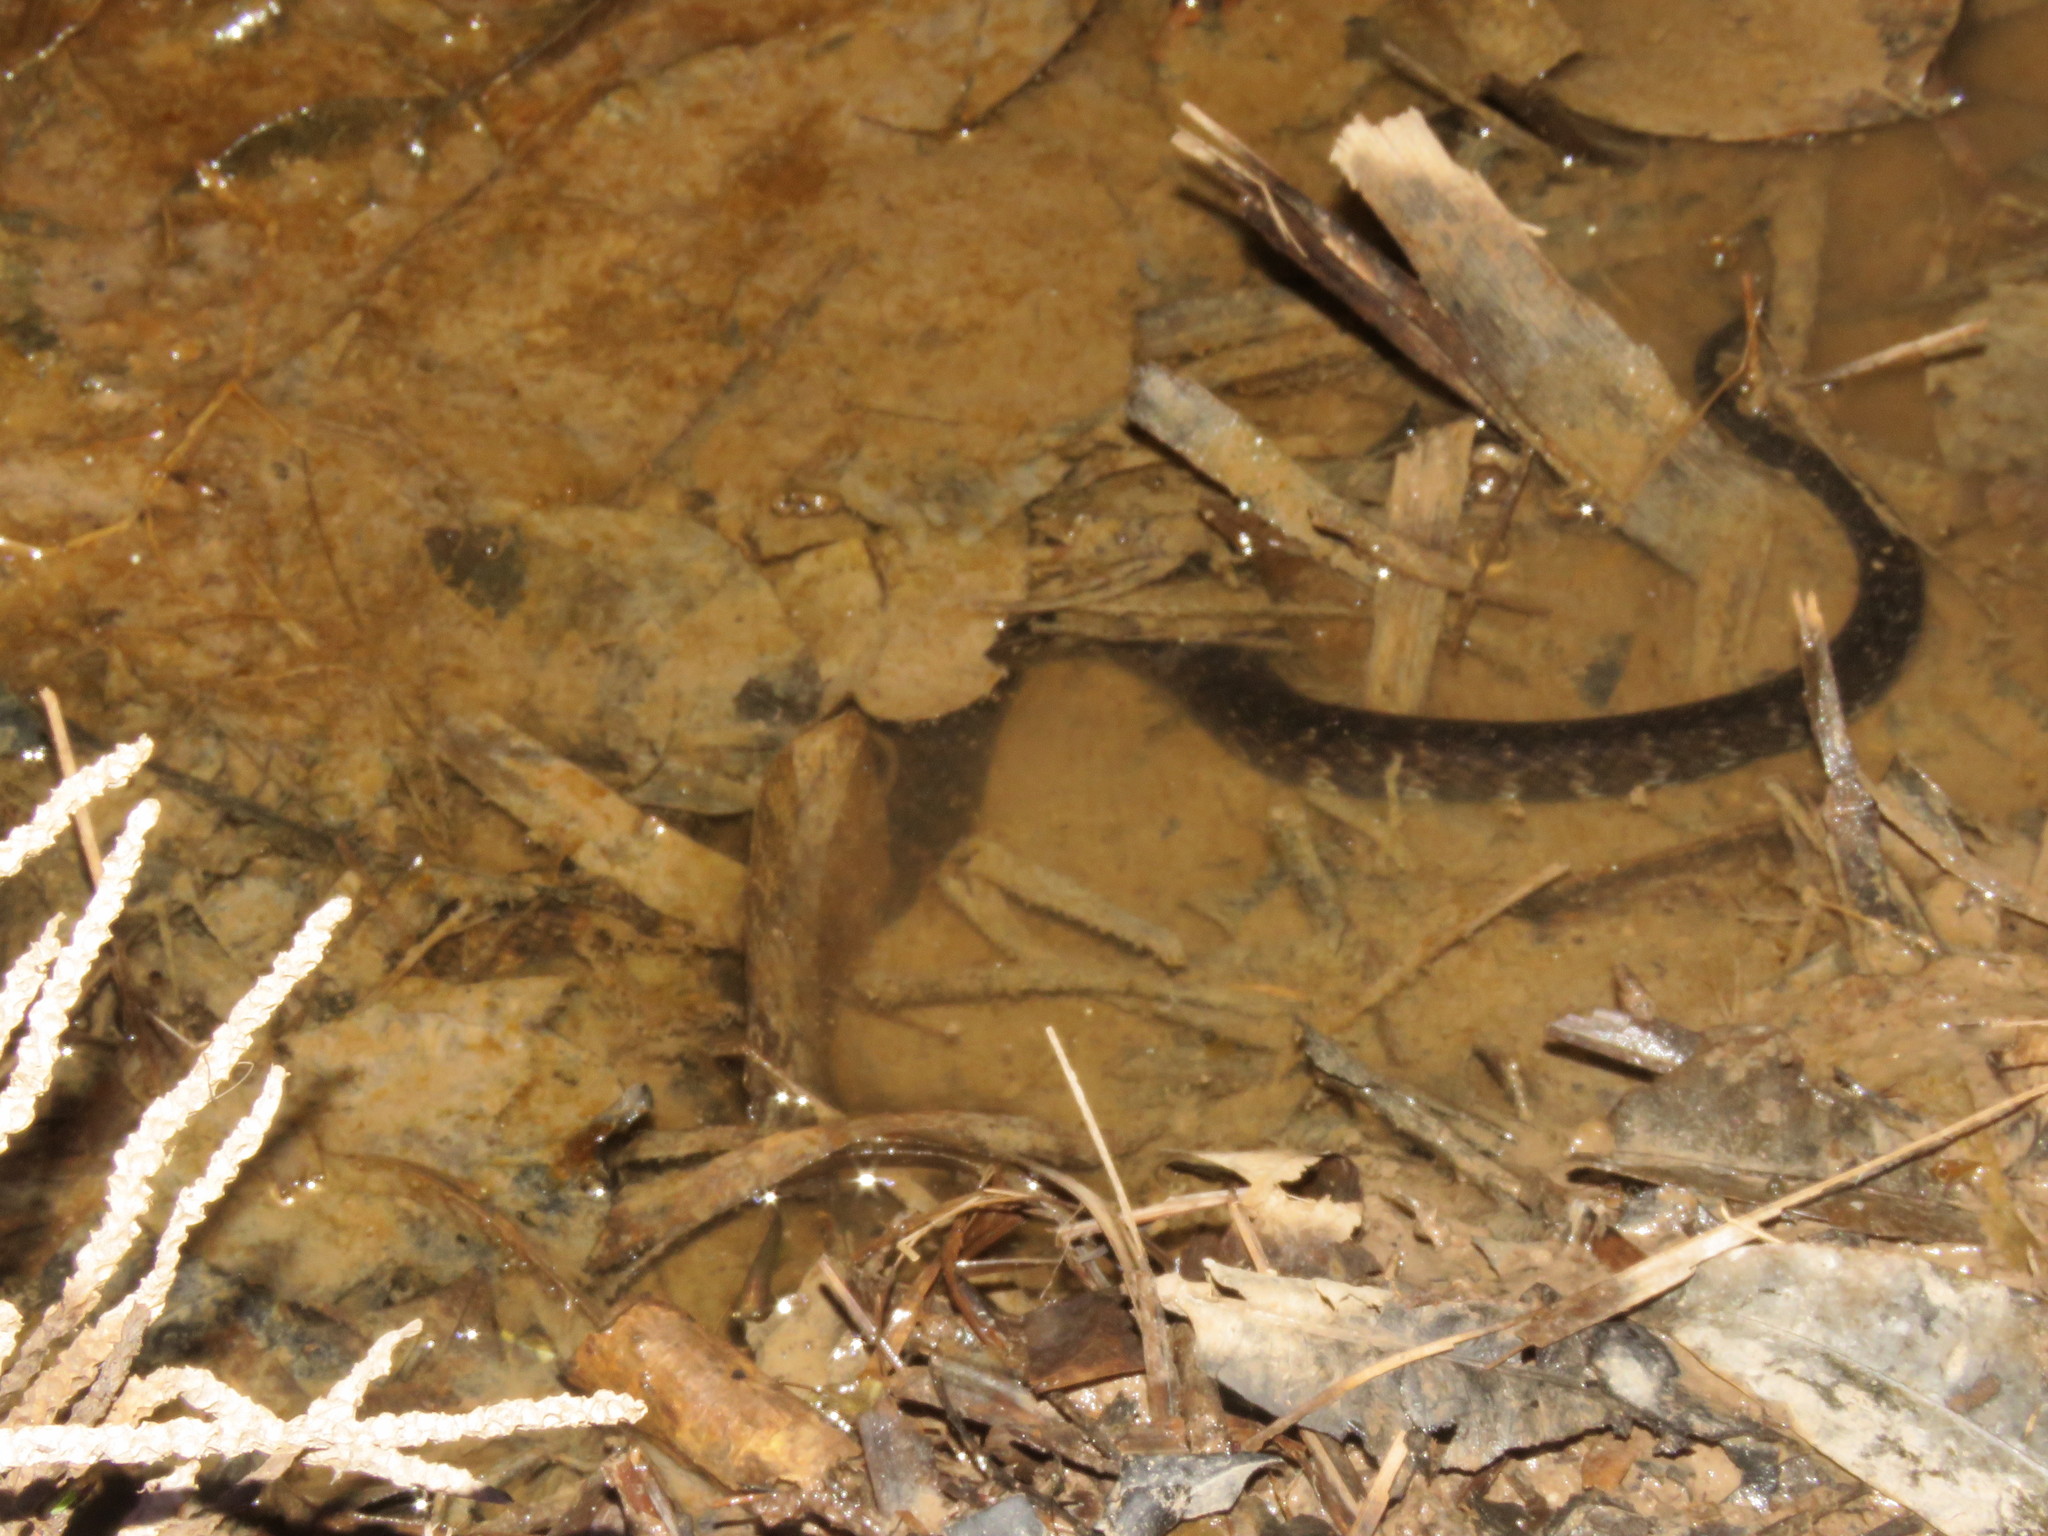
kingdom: Animalia
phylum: Chordata
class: Squamata
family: Colubridae
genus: Helicops
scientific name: Helicops leopardinus
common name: Leopard keelback
